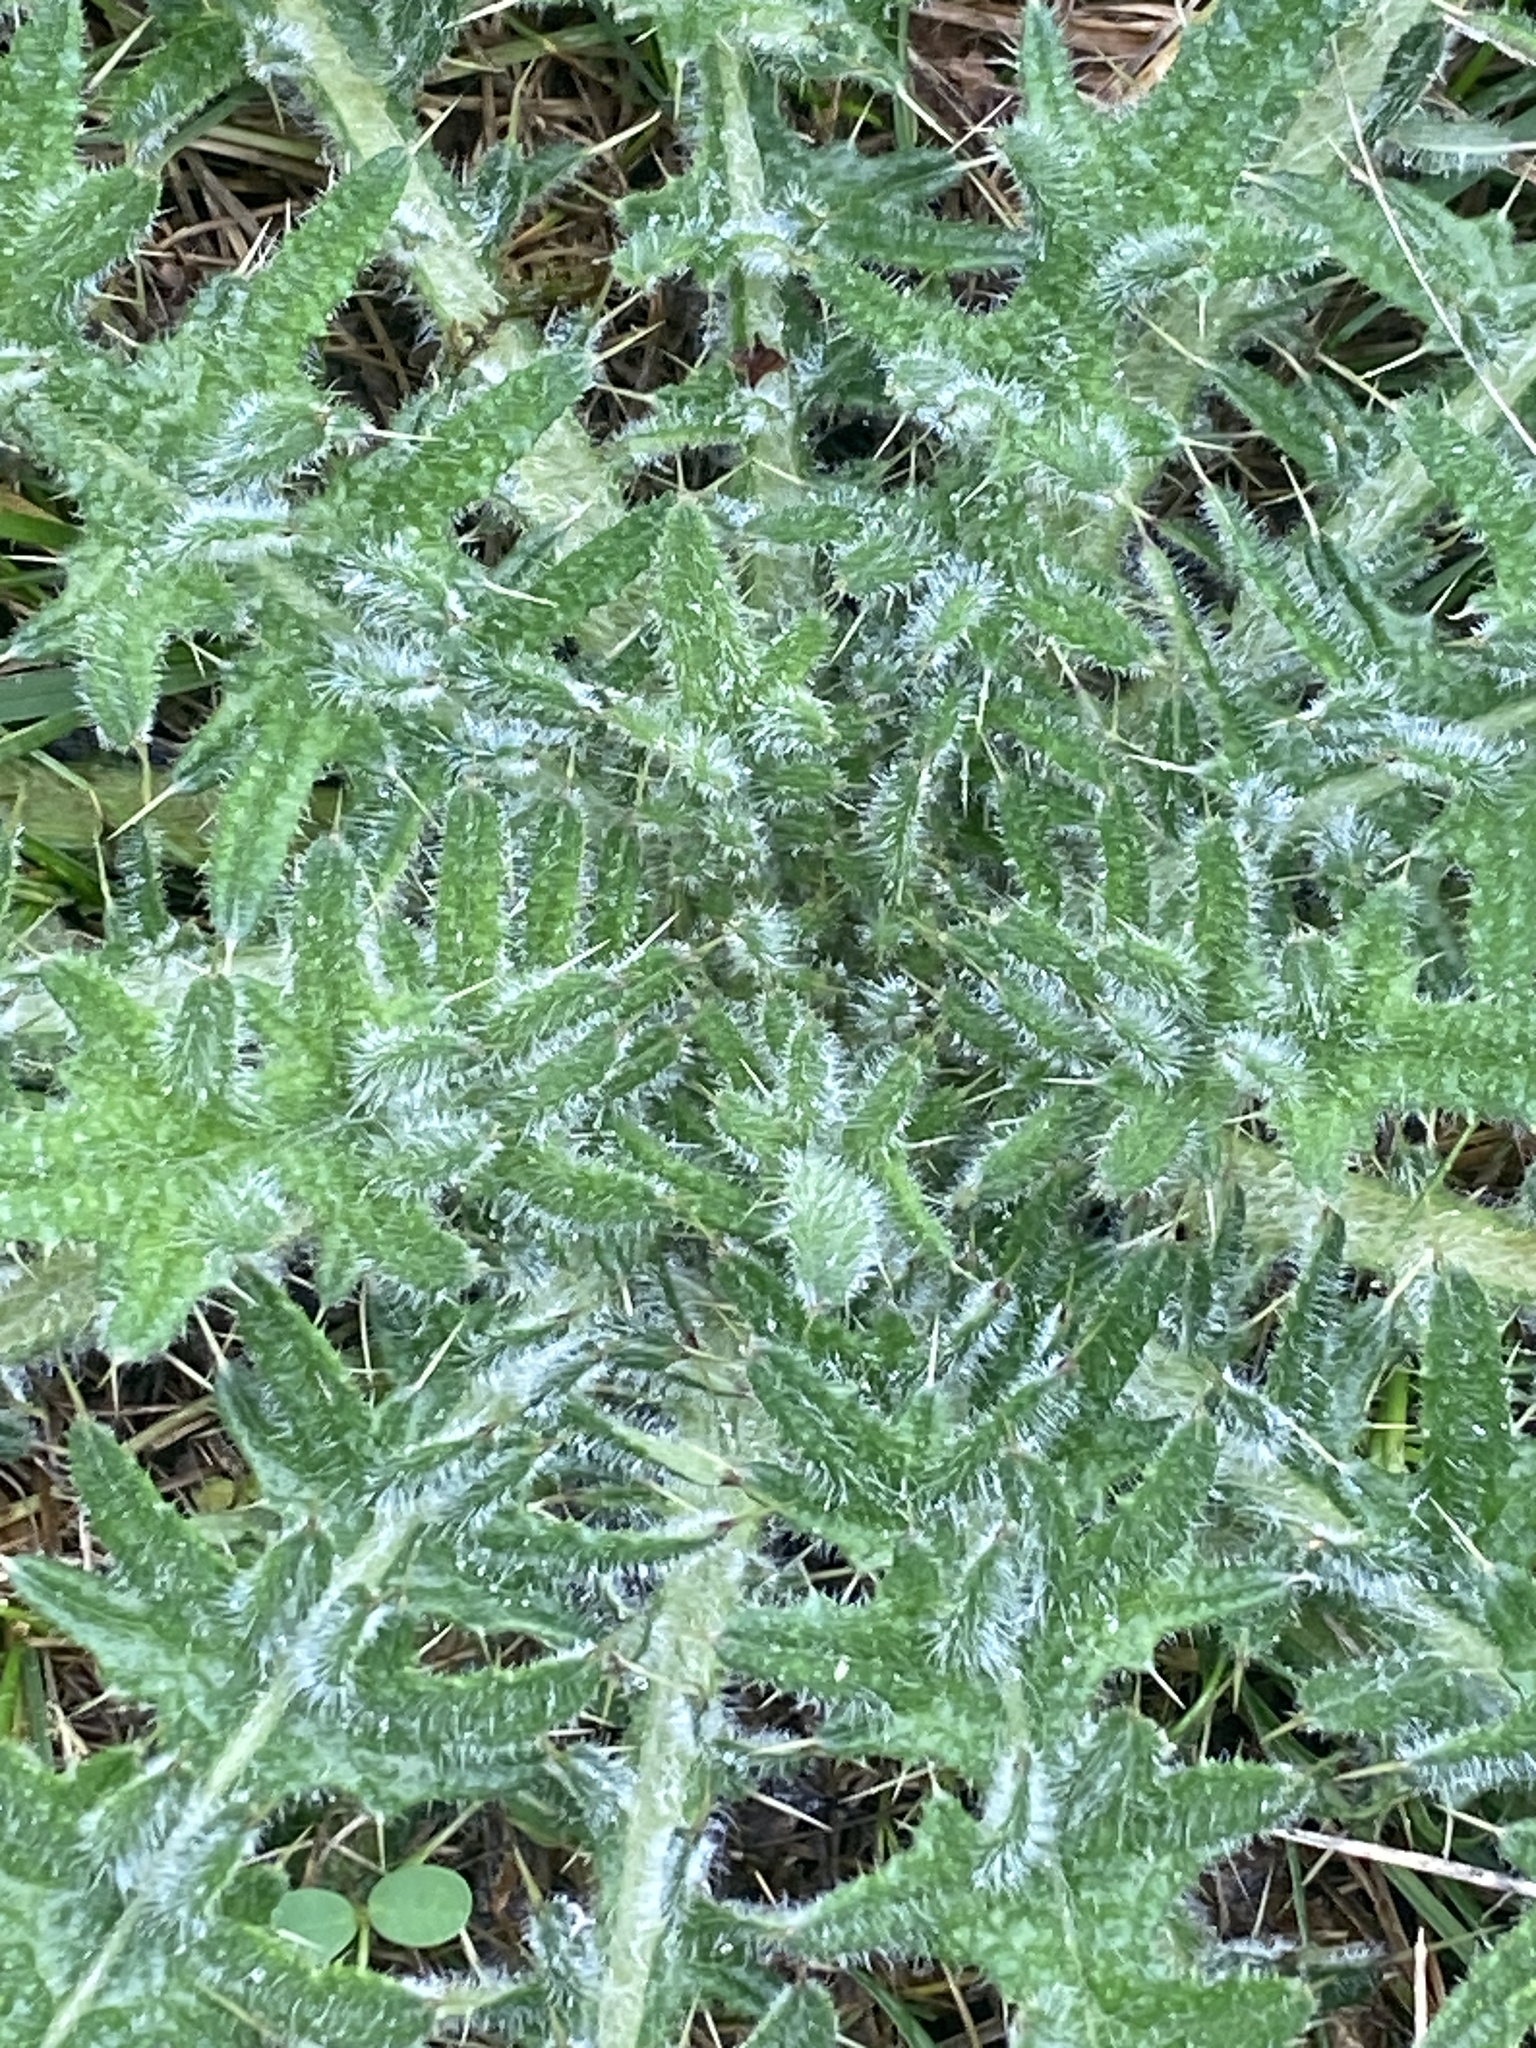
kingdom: Plantae
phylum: Tracheophyta
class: Magnoliopsida
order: Asterales
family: Asteraceae
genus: Cirsium
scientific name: Cirsium vulgare
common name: Bull thistle
